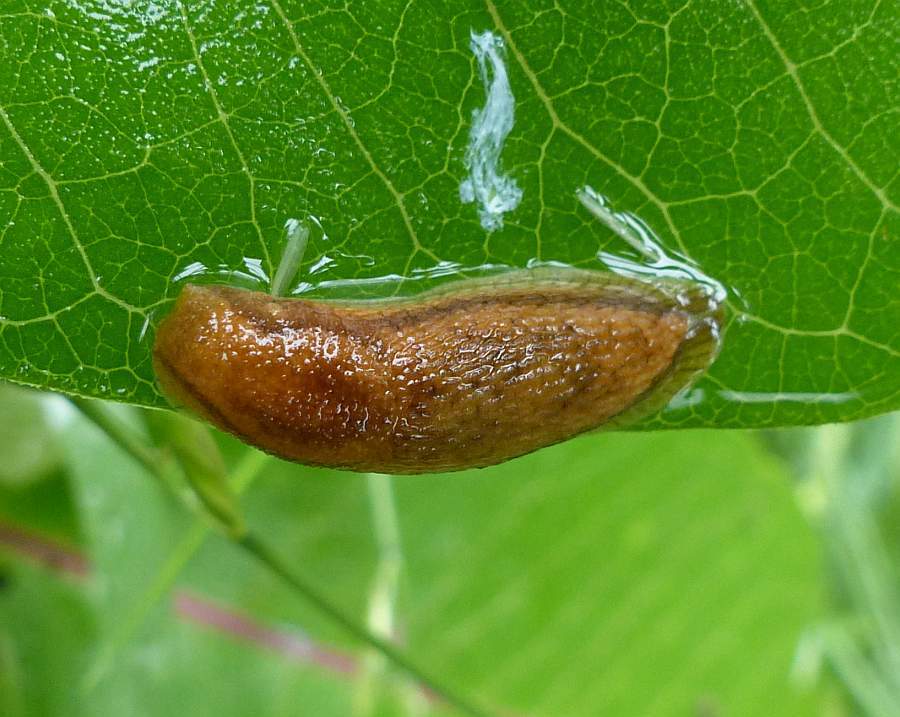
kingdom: Animalia
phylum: Mollusca
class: Gastropoda
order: Stylommatophora
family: Arionidae
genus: Arion
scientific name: Arion subfuscus
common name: Dusky arion
